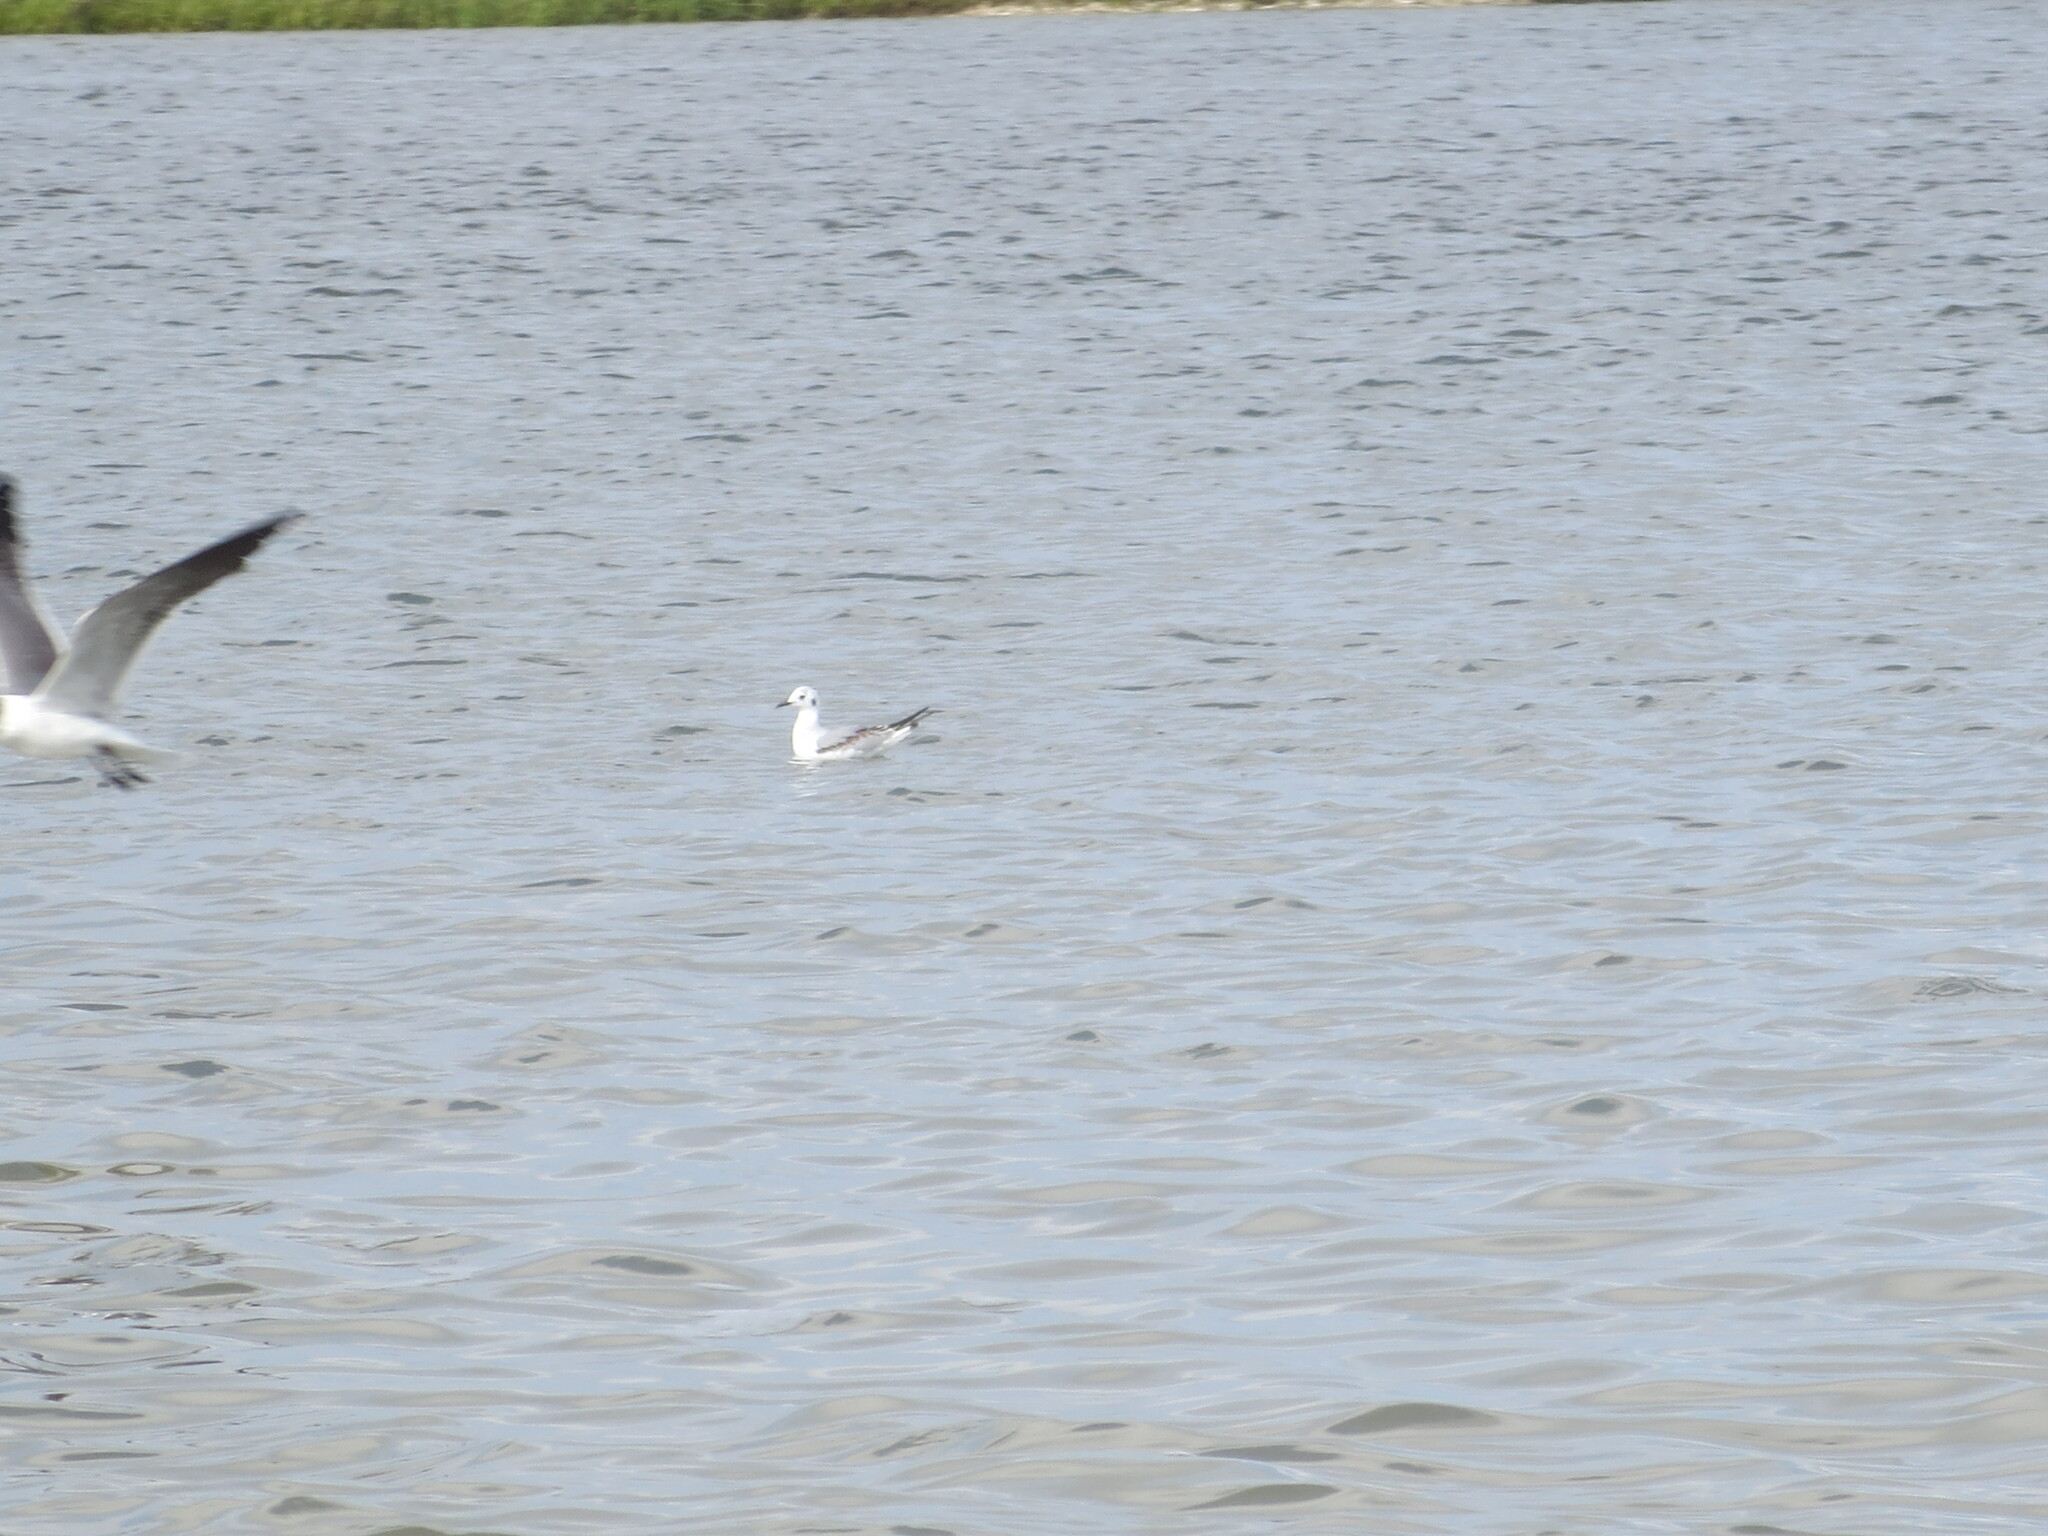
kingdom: Animalia
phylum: Chordata
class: Aves
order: Charadriiformes
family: Laridae
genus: Chroicocephalus
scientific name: Chroicocephalus philadelphia
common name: Bonaparte's gull
